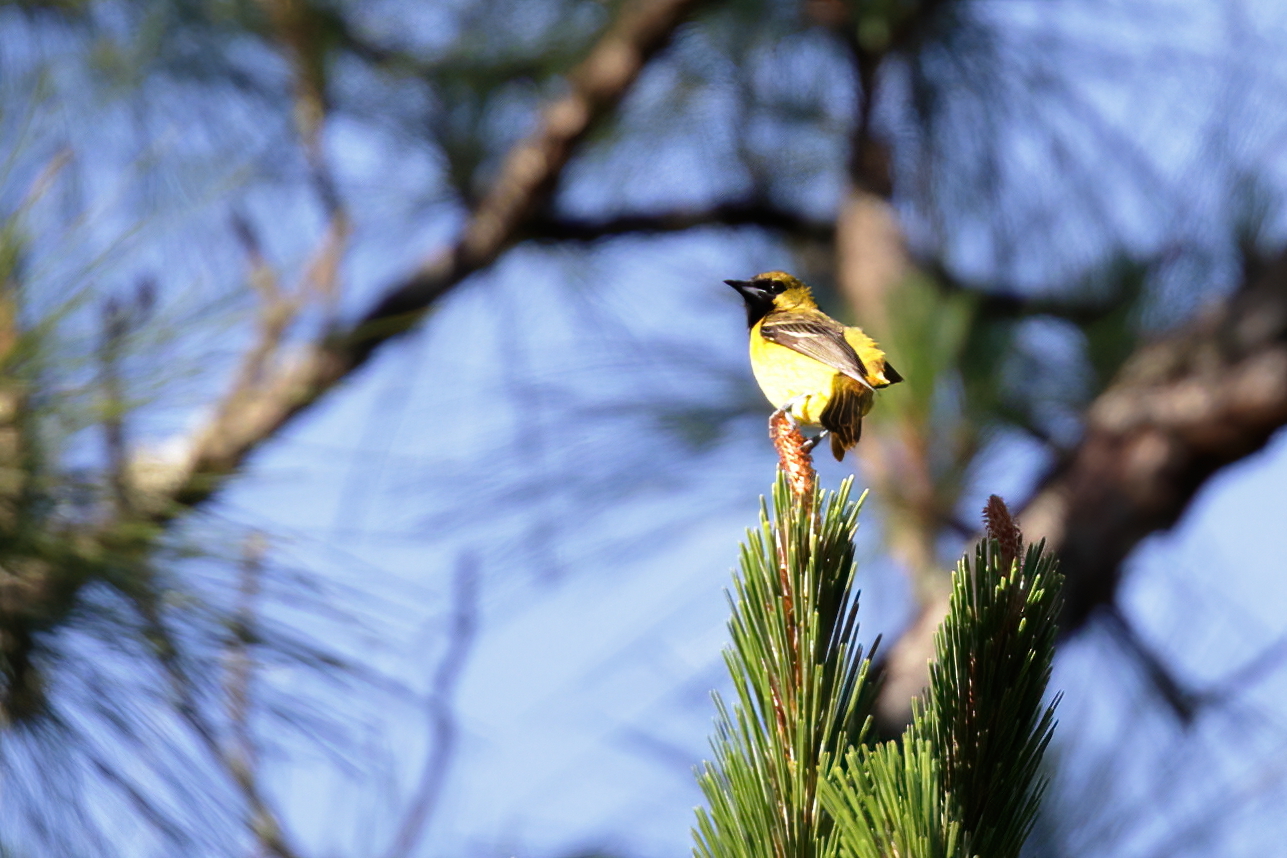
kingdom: Animalia
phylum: Chordata
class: Aves
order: Passeriformes
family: Icteridae
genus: Icterus
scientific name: Icterus spurius
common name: Orchard oriole
